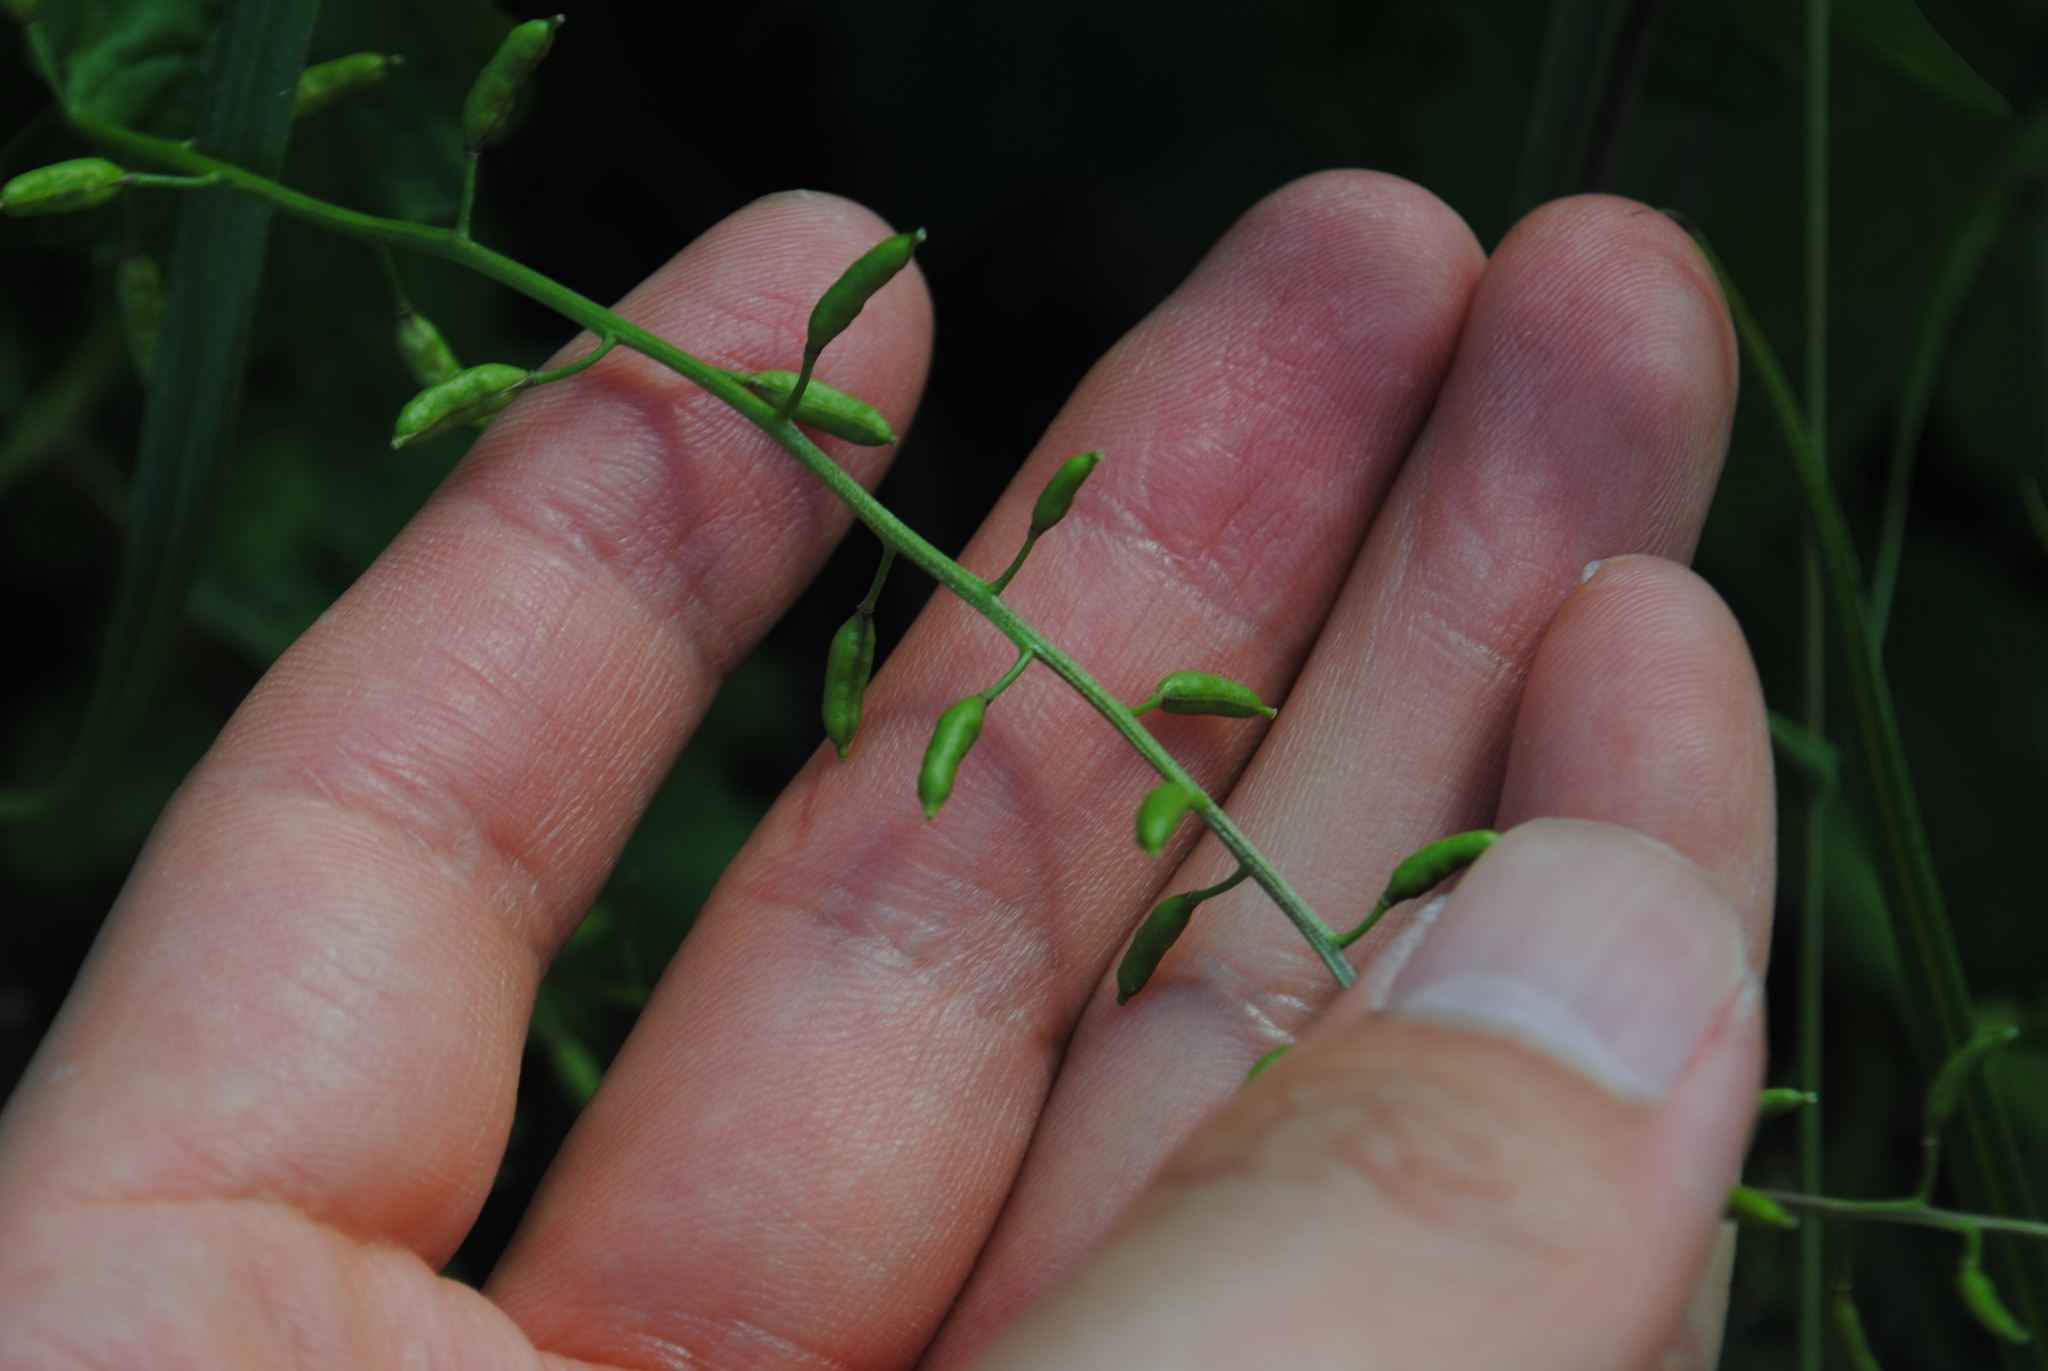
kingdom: Plantae
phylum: Tracheophyta
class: Magnoliopsida
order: Brassicales
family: Brassicaceae
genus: Rorippa
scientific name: Rorippa palustris
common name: Marsh yellow-cress
